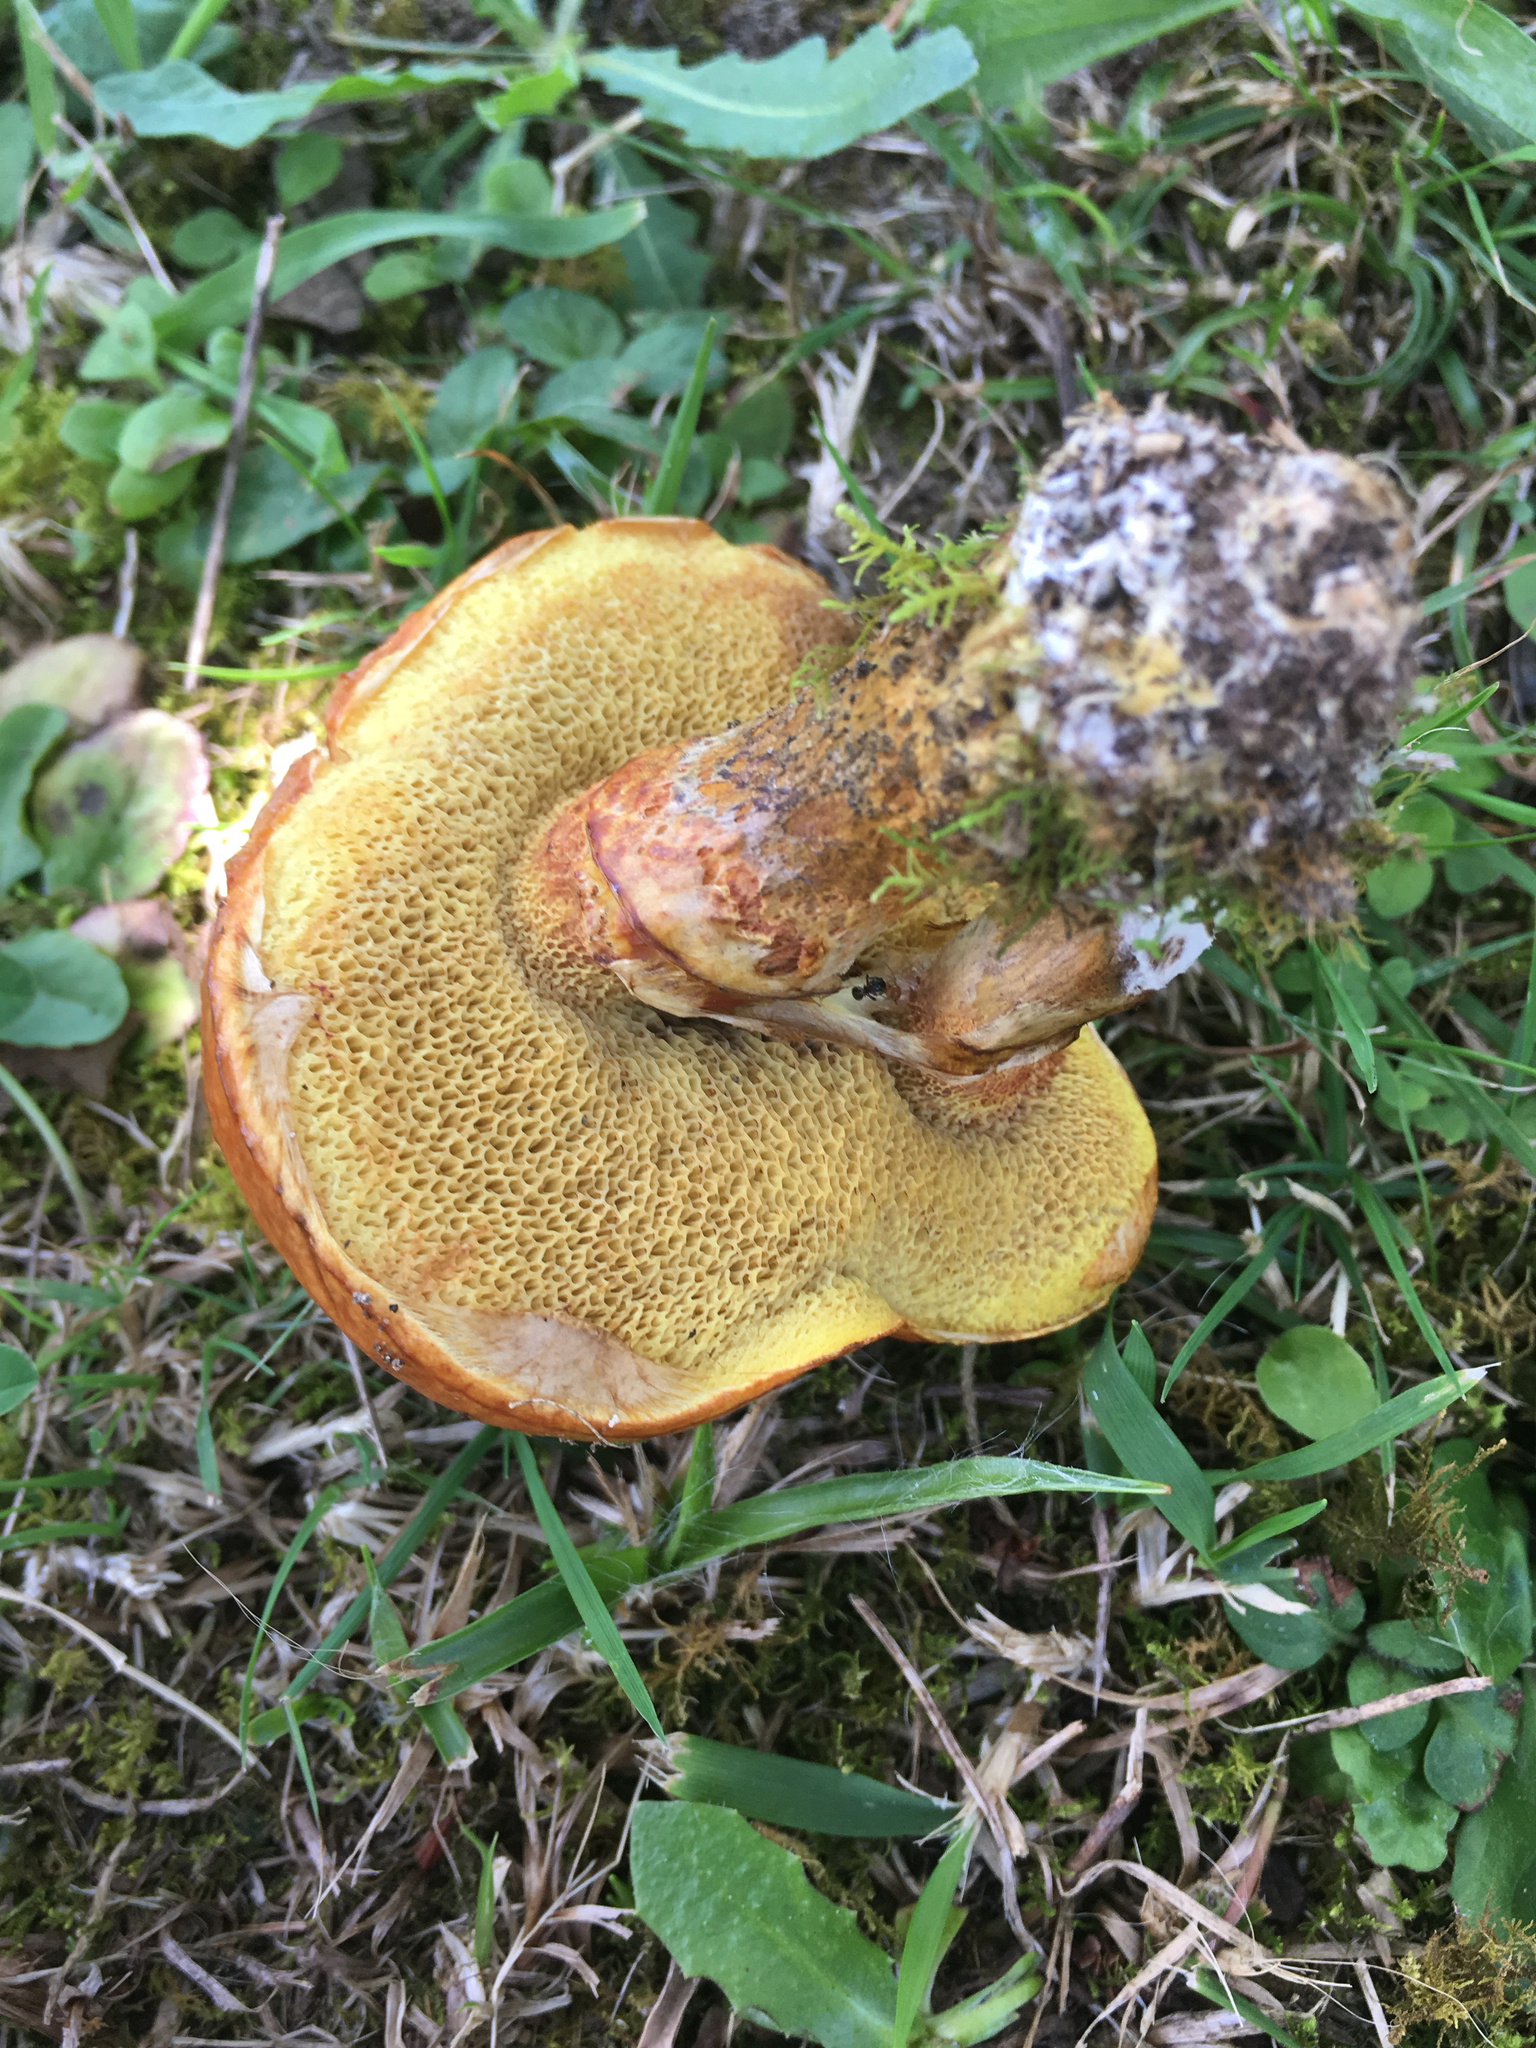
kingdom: Fungi
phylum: Basidiomycota
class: Agaricomycetes
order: Boletales
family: Suillaceae
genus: Suillus
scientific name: Suillus luteus
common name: Slippery jack
